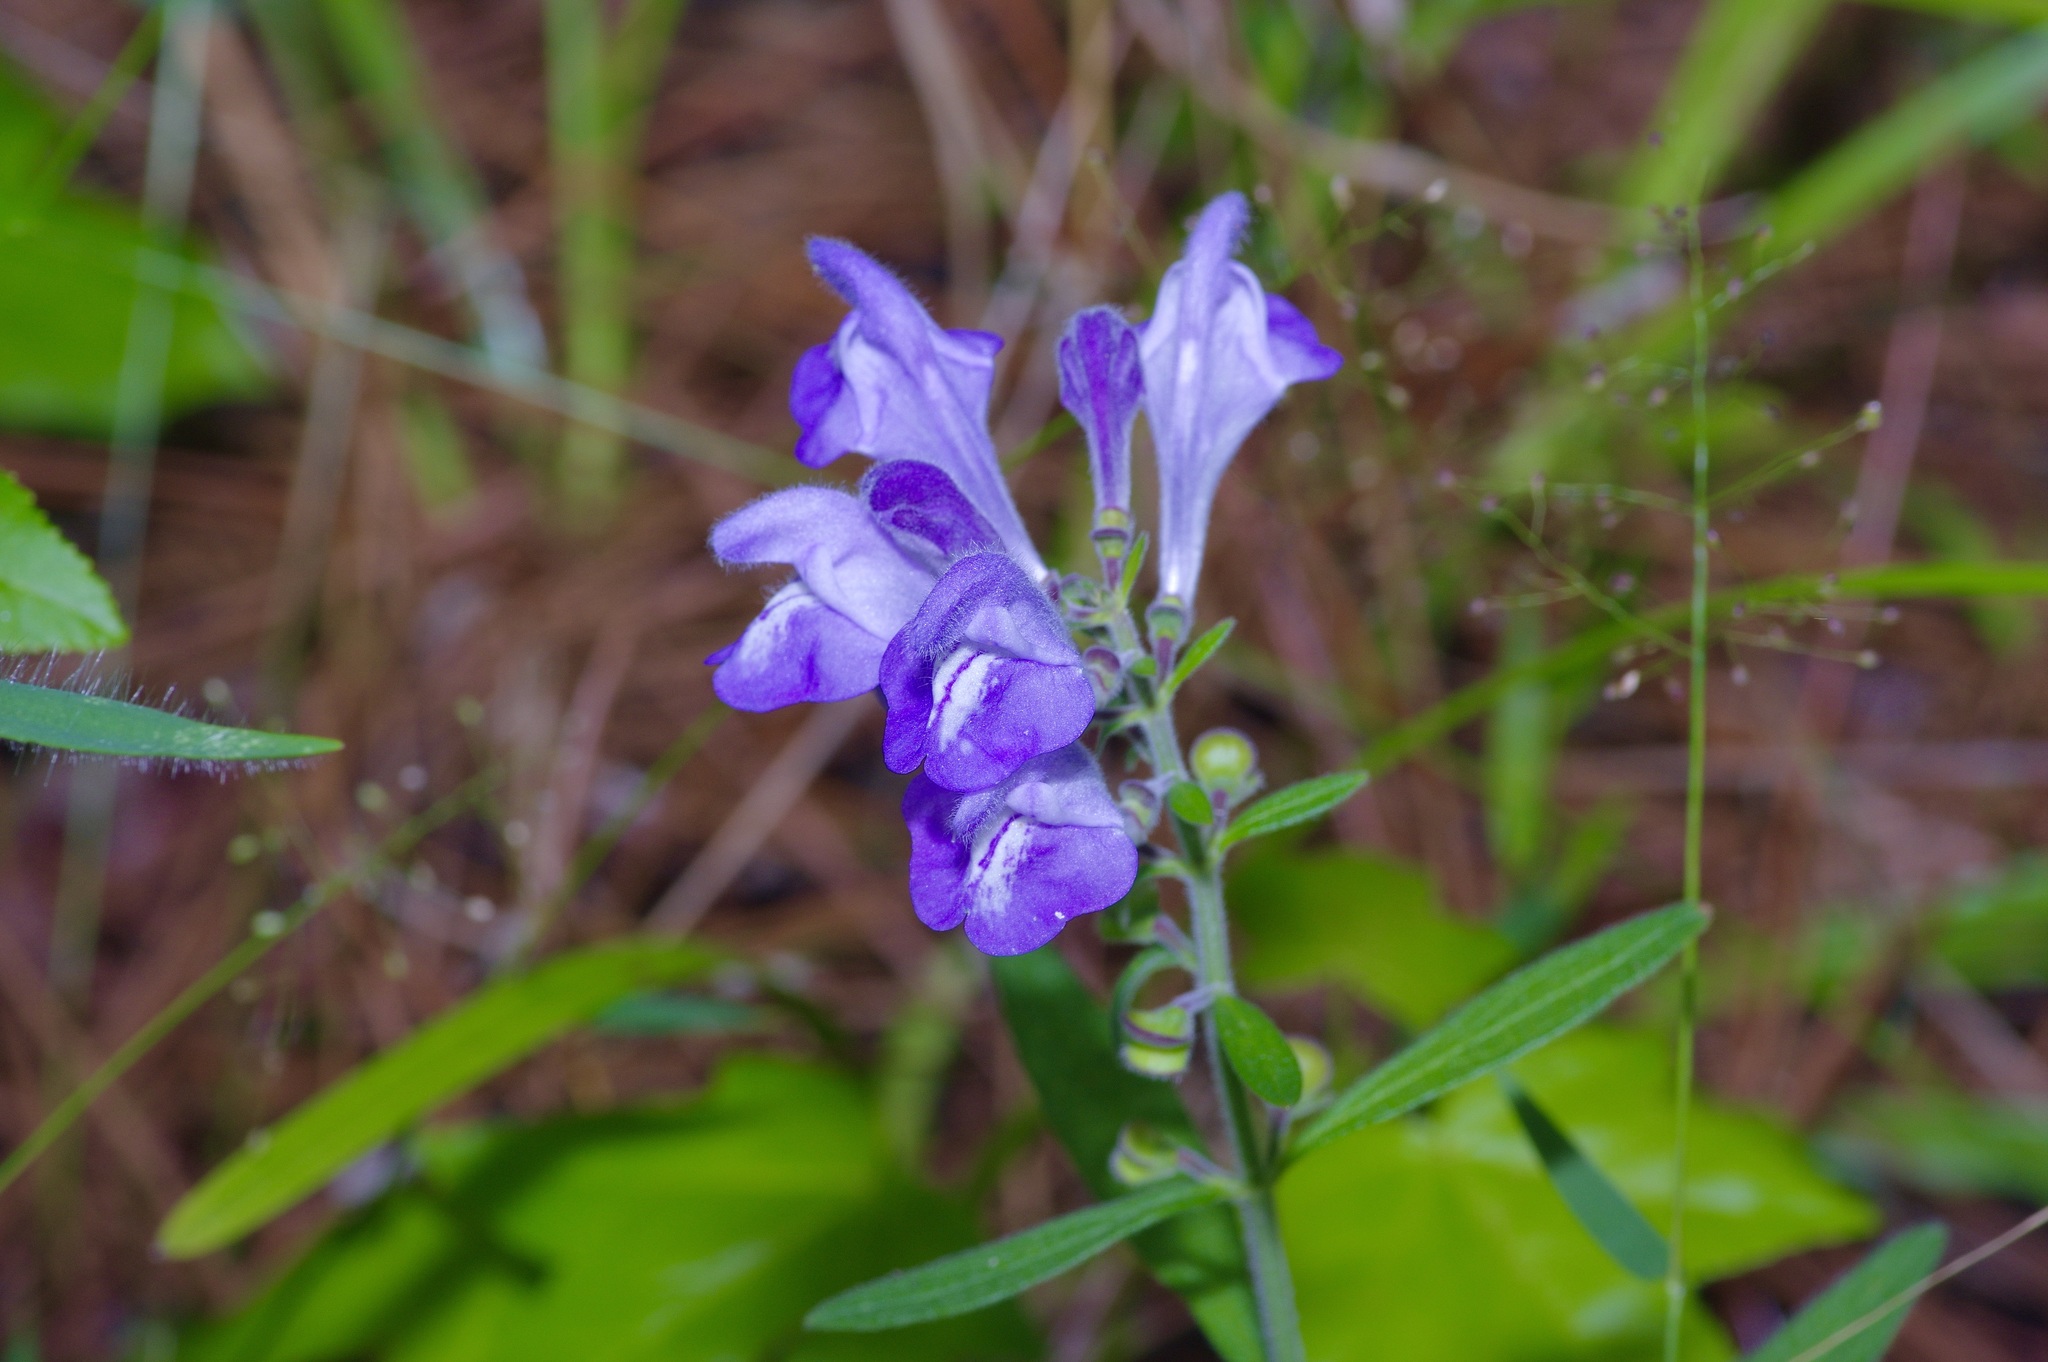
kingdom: Plantae
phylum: Tracheophyta
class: Magnoliopsida
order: Lamiales
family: Lamiaceae
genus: Scutellaria
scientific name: Scutellaria integrifolia
